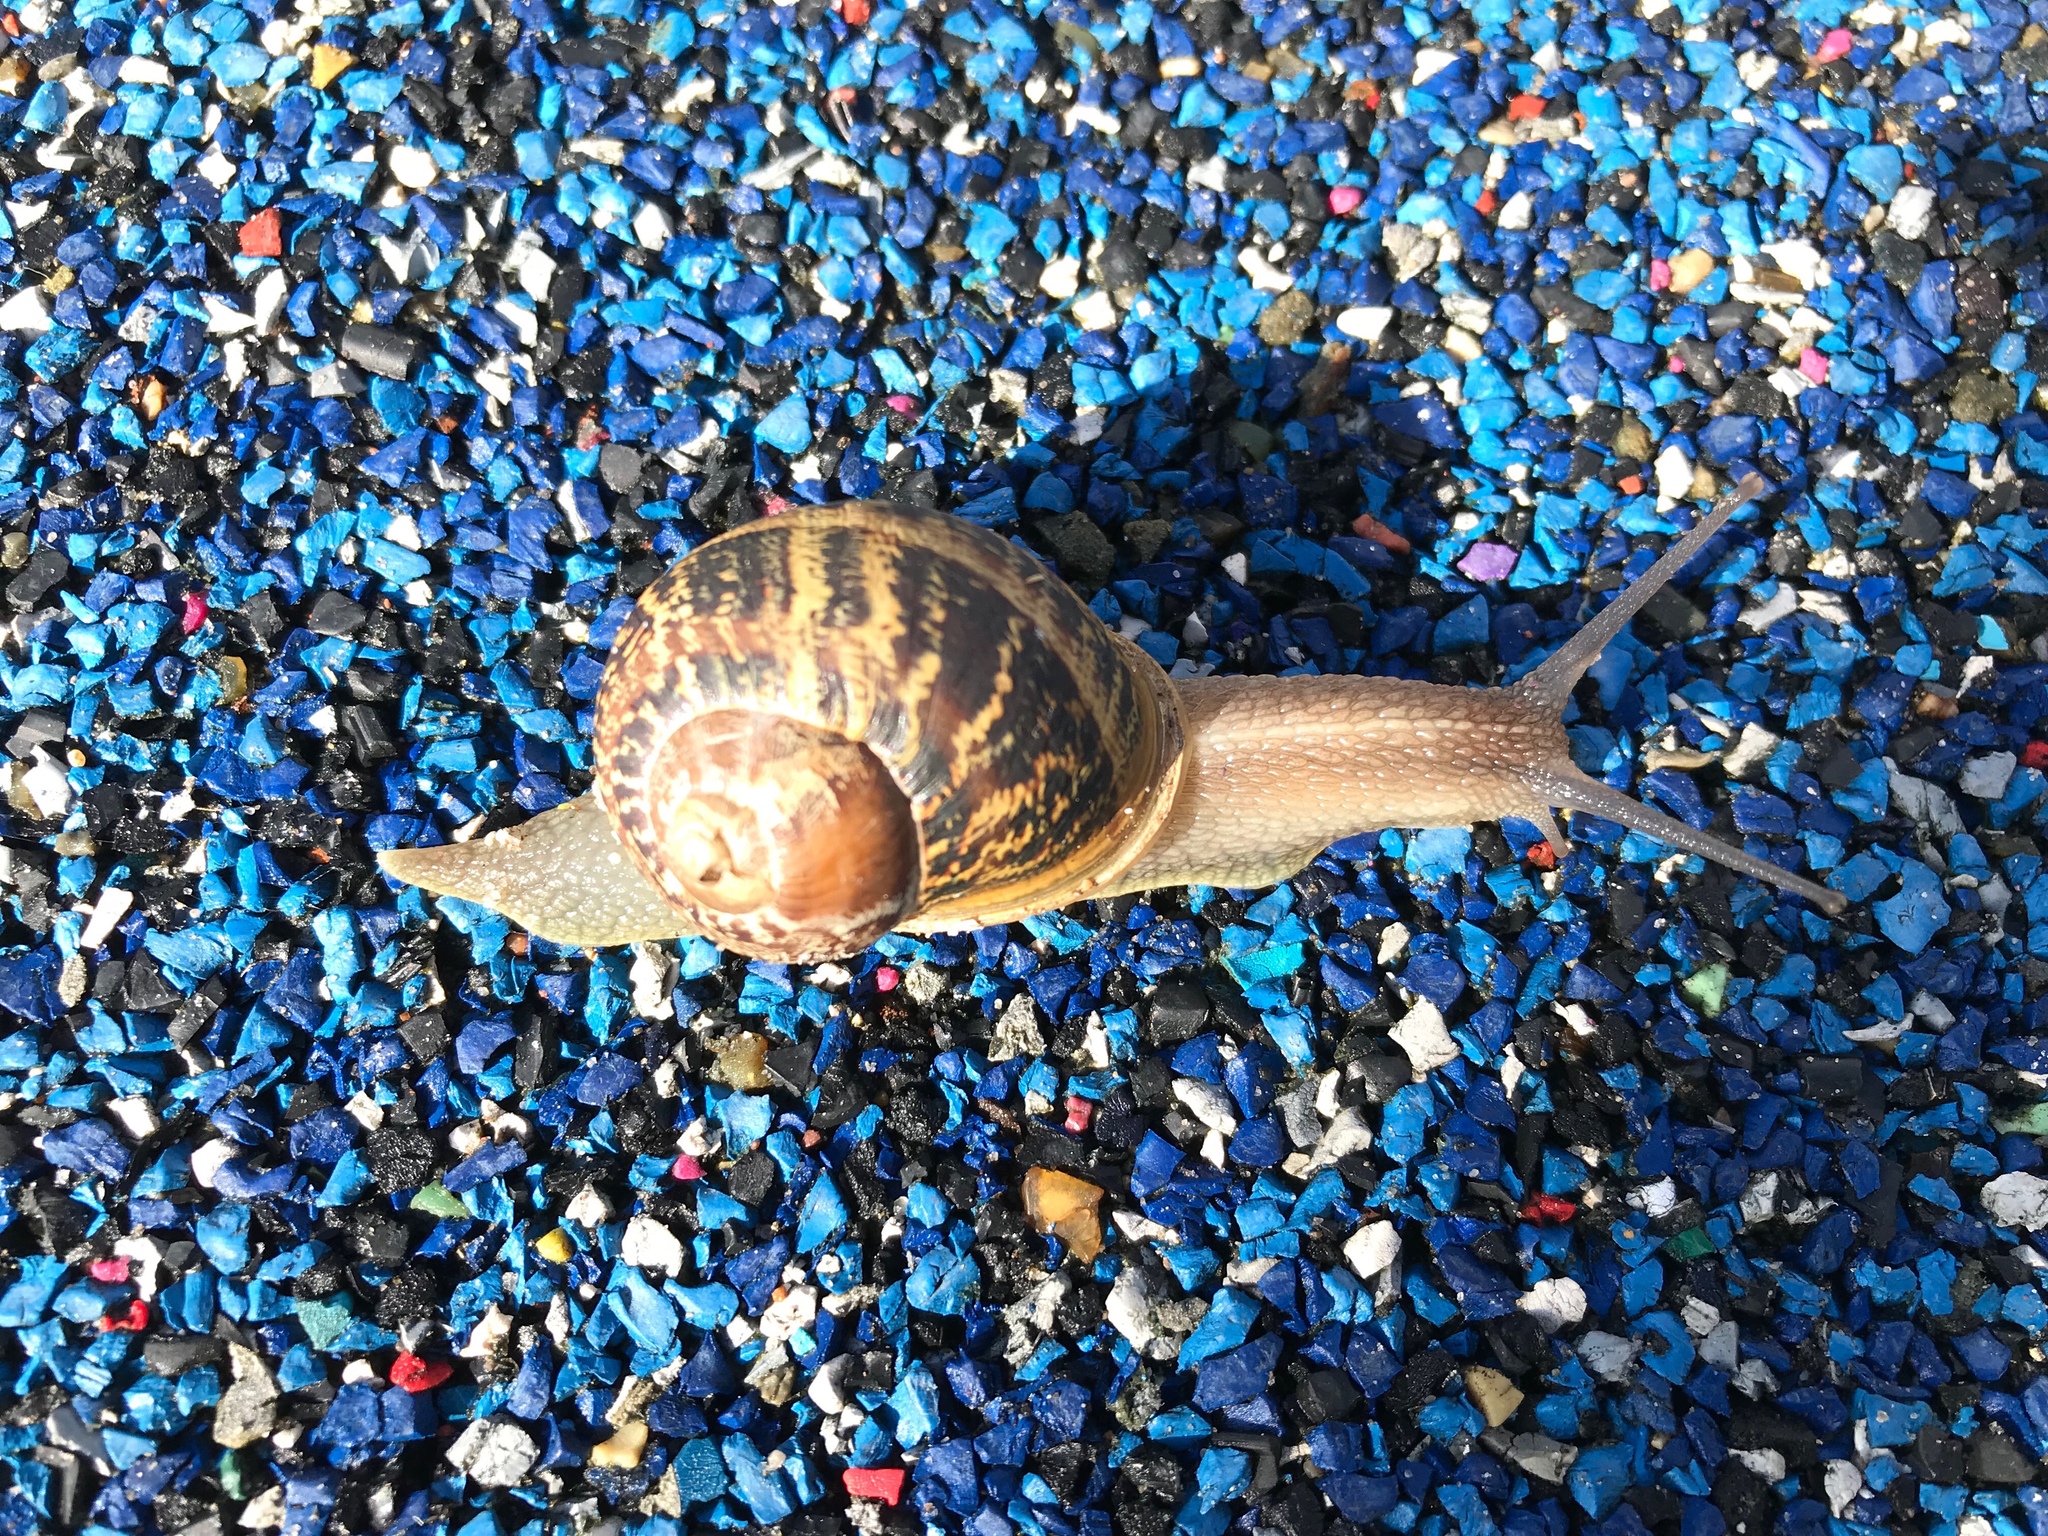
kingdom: Animalia
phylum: Mollusca
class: Gastropoda
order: Stylommatophora
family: Helicidae
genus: Cornu
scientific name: Cornu aspersum
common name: Brown garden snail
